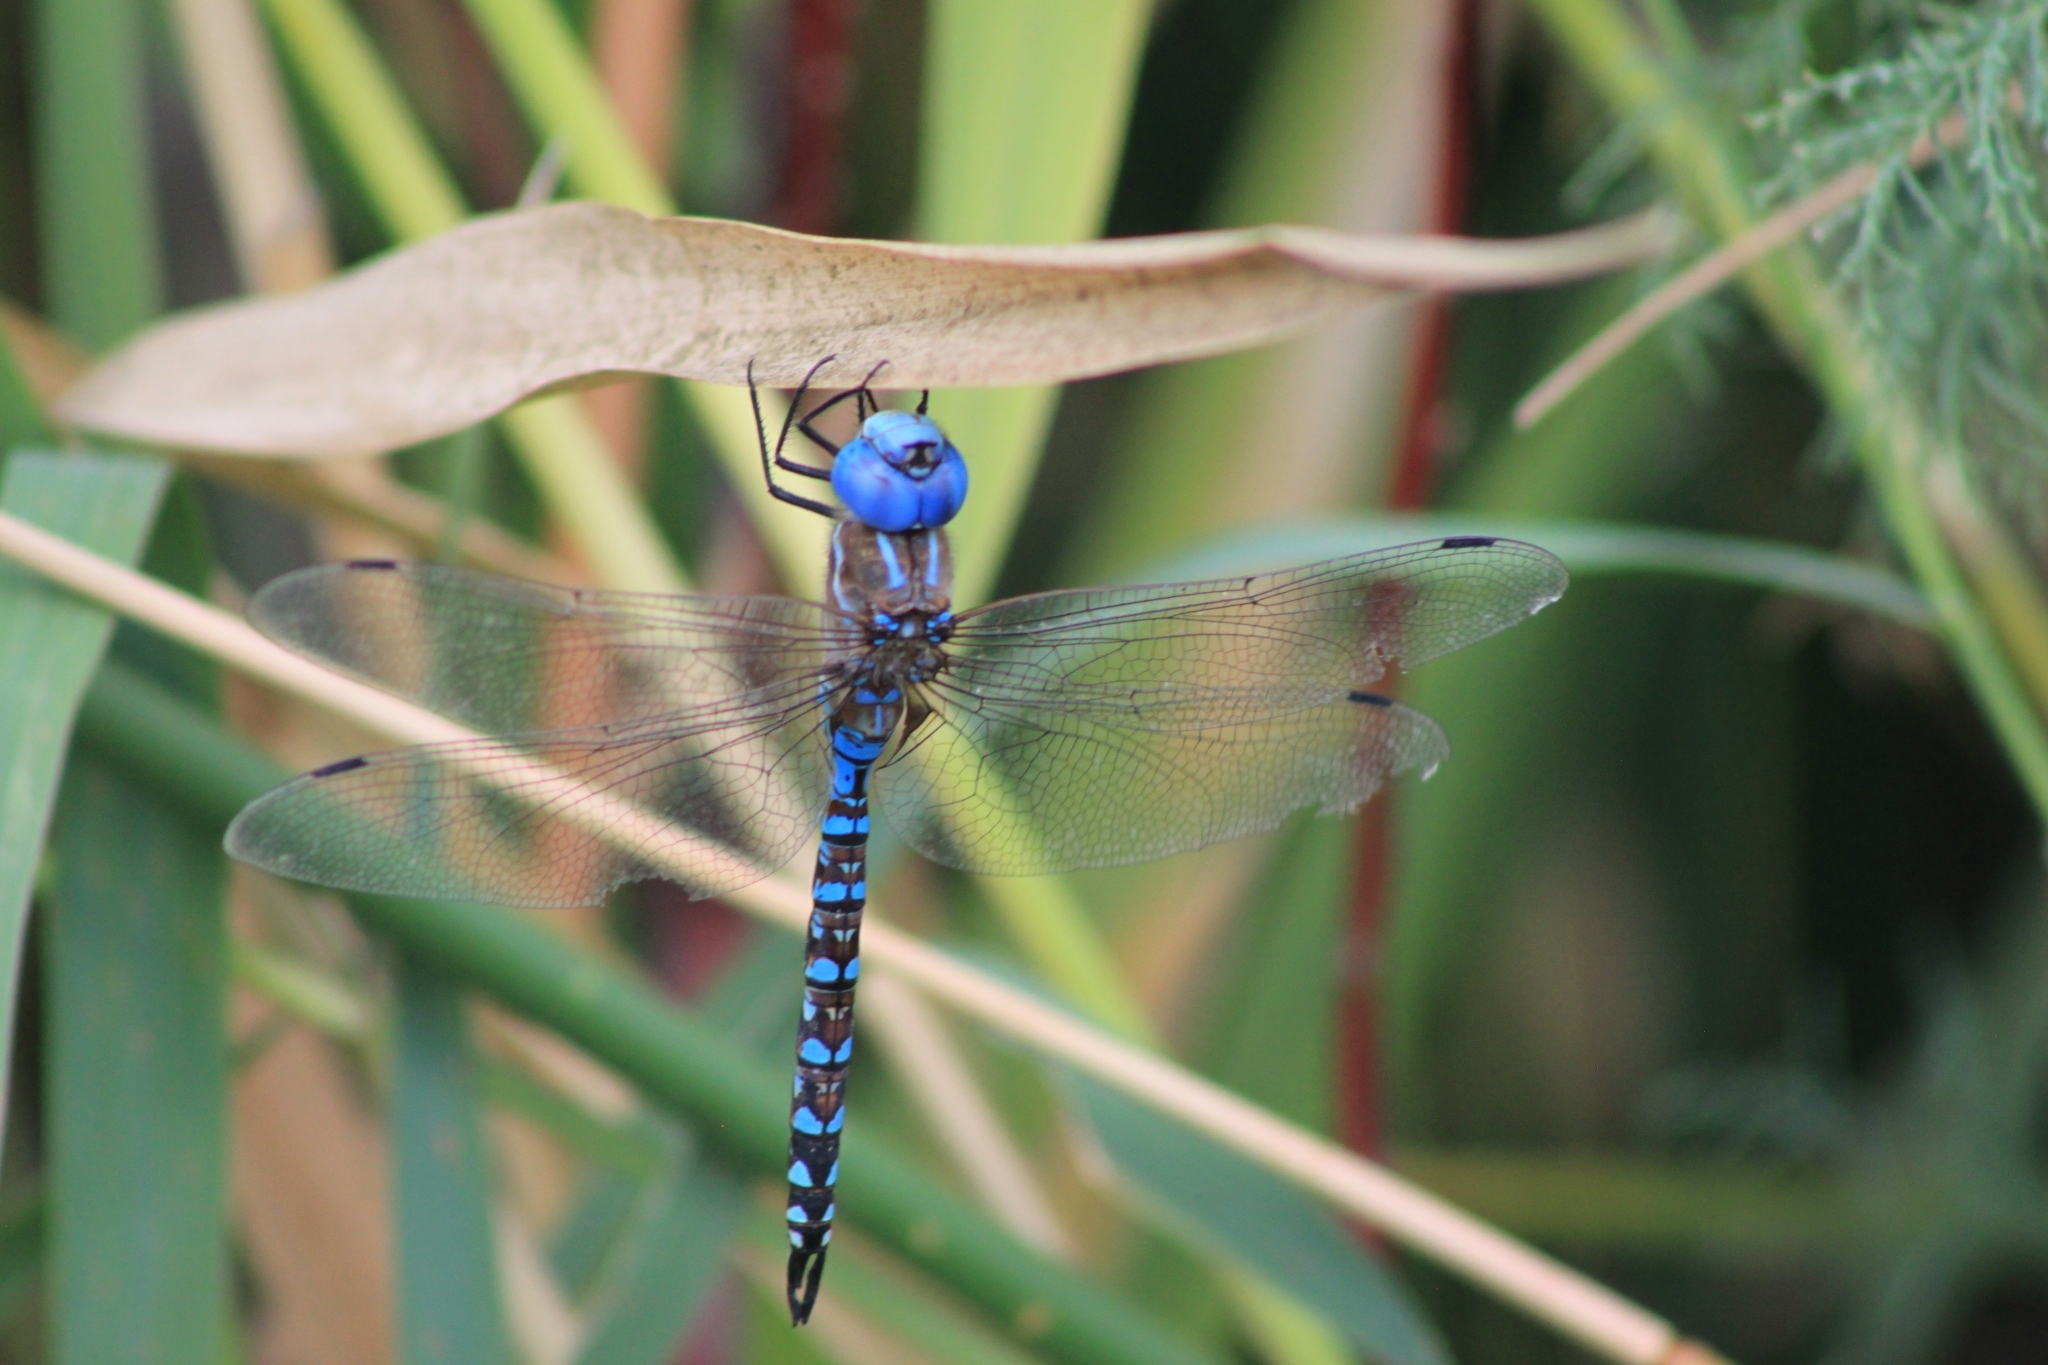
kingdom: Animalia
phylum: Arthropoda
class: Insecta
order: Odonata
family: Aeshnidae
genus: Rhionaeschna
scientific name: Rhionaeschna multicolor
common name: Blue-eyed darner
